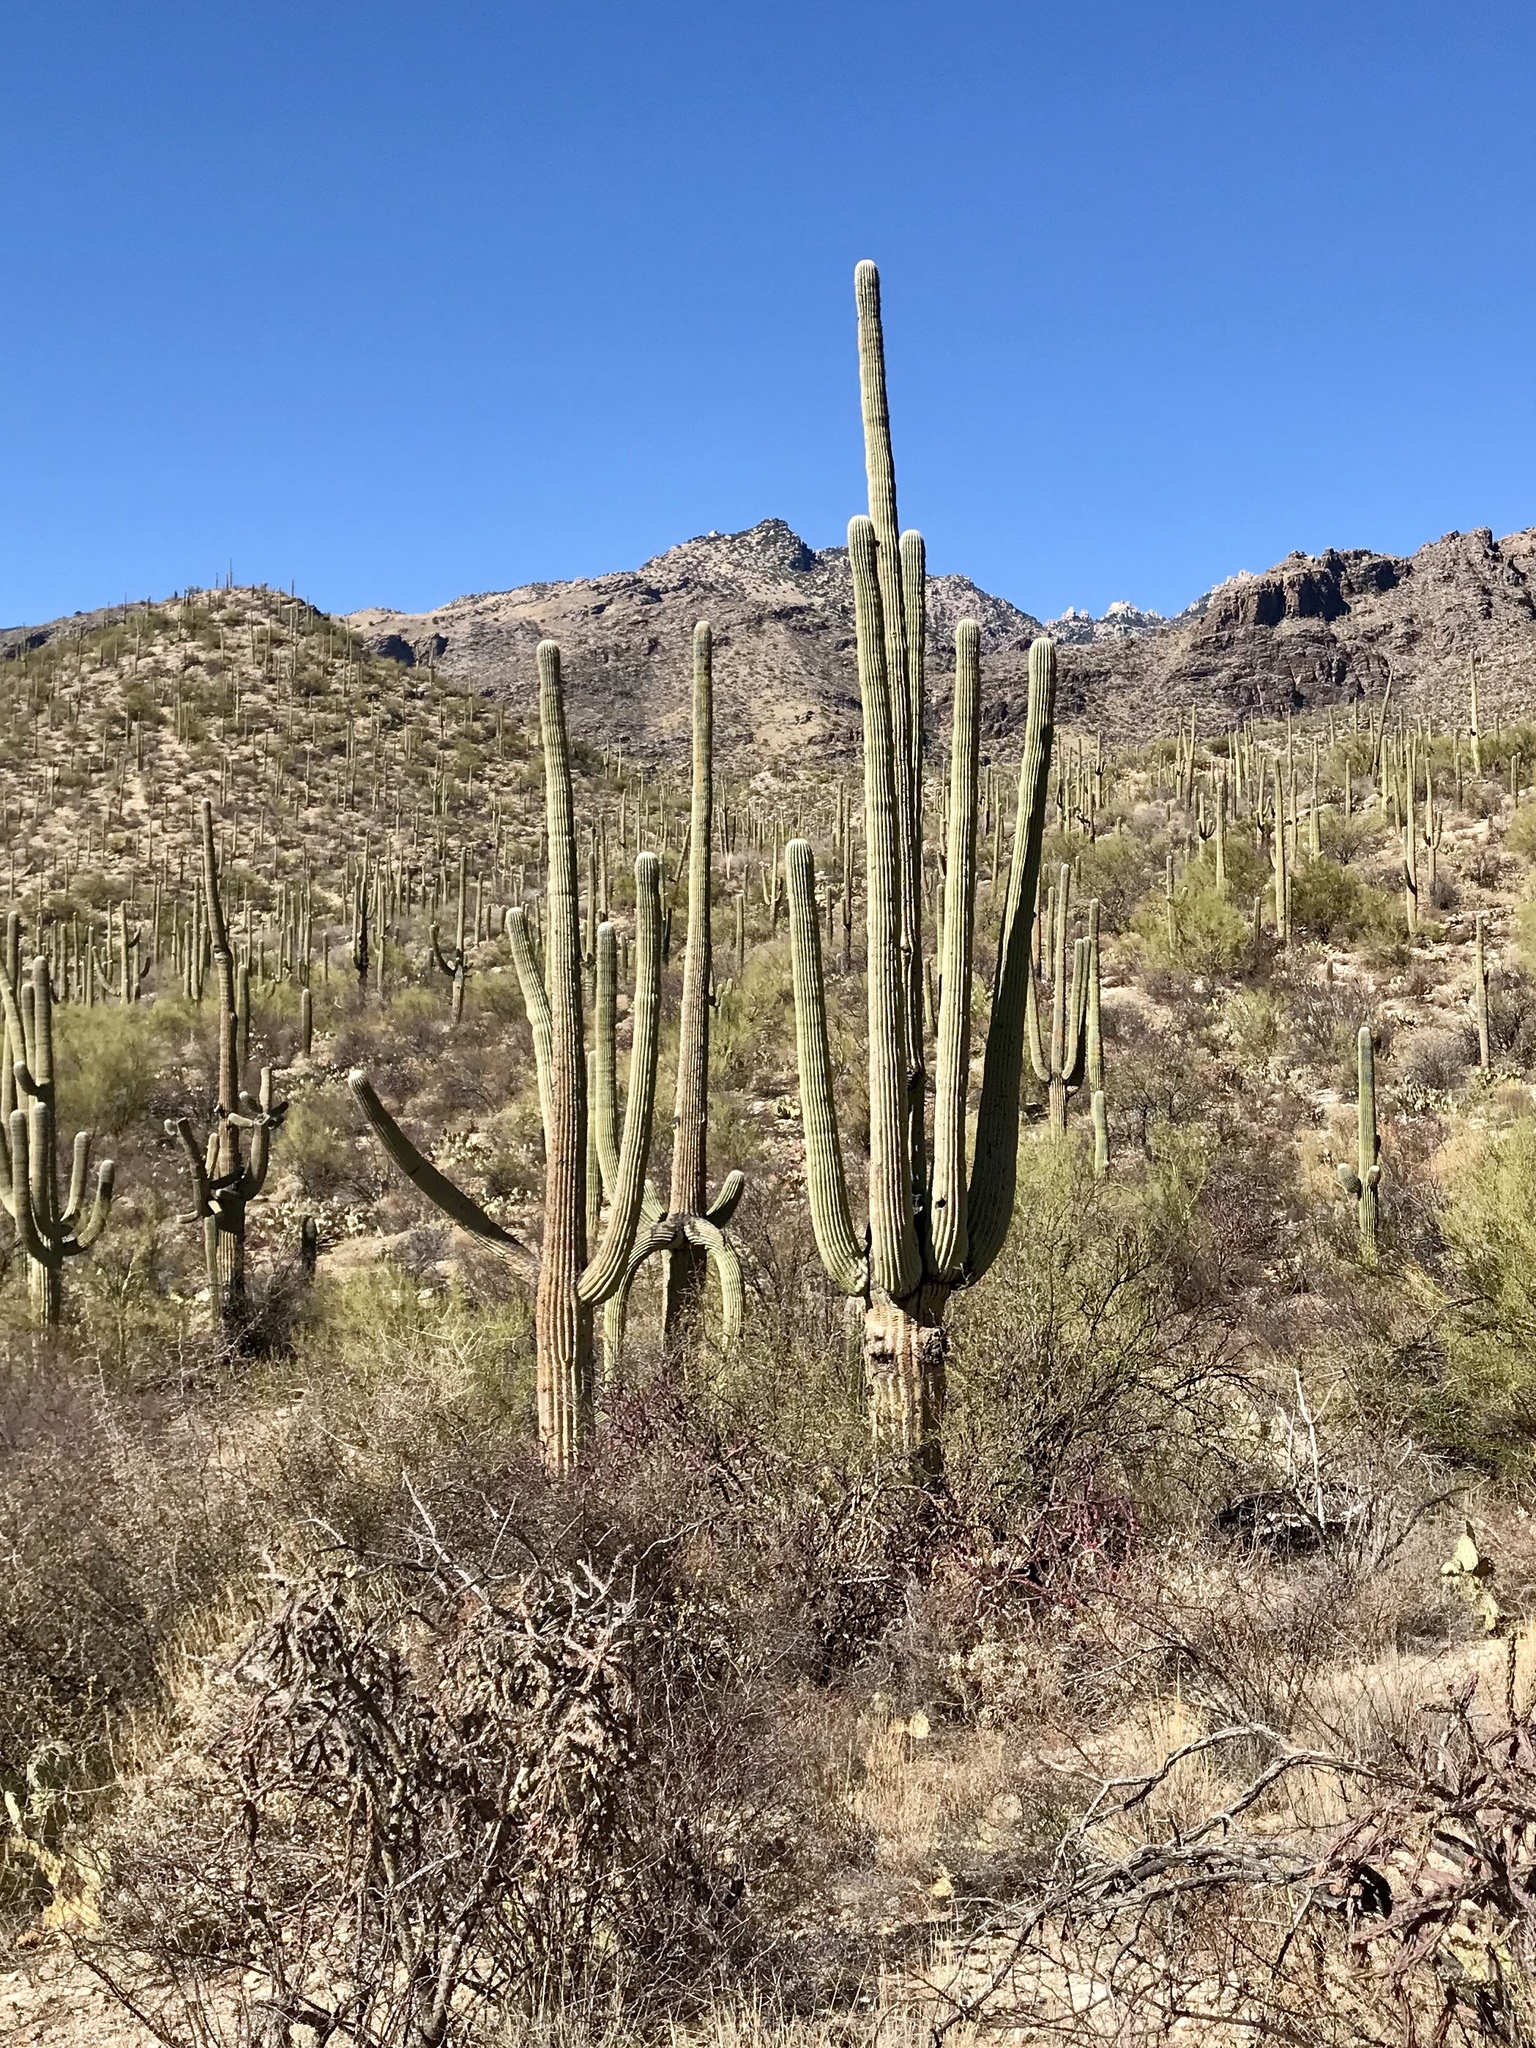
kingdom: Plantae
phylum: Tracheophyta
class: Magnoliopsida
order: Caryophyllales
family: Cactaceae
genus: Carnegiea
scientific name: Carnegiea gigantea
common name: Saguaro
